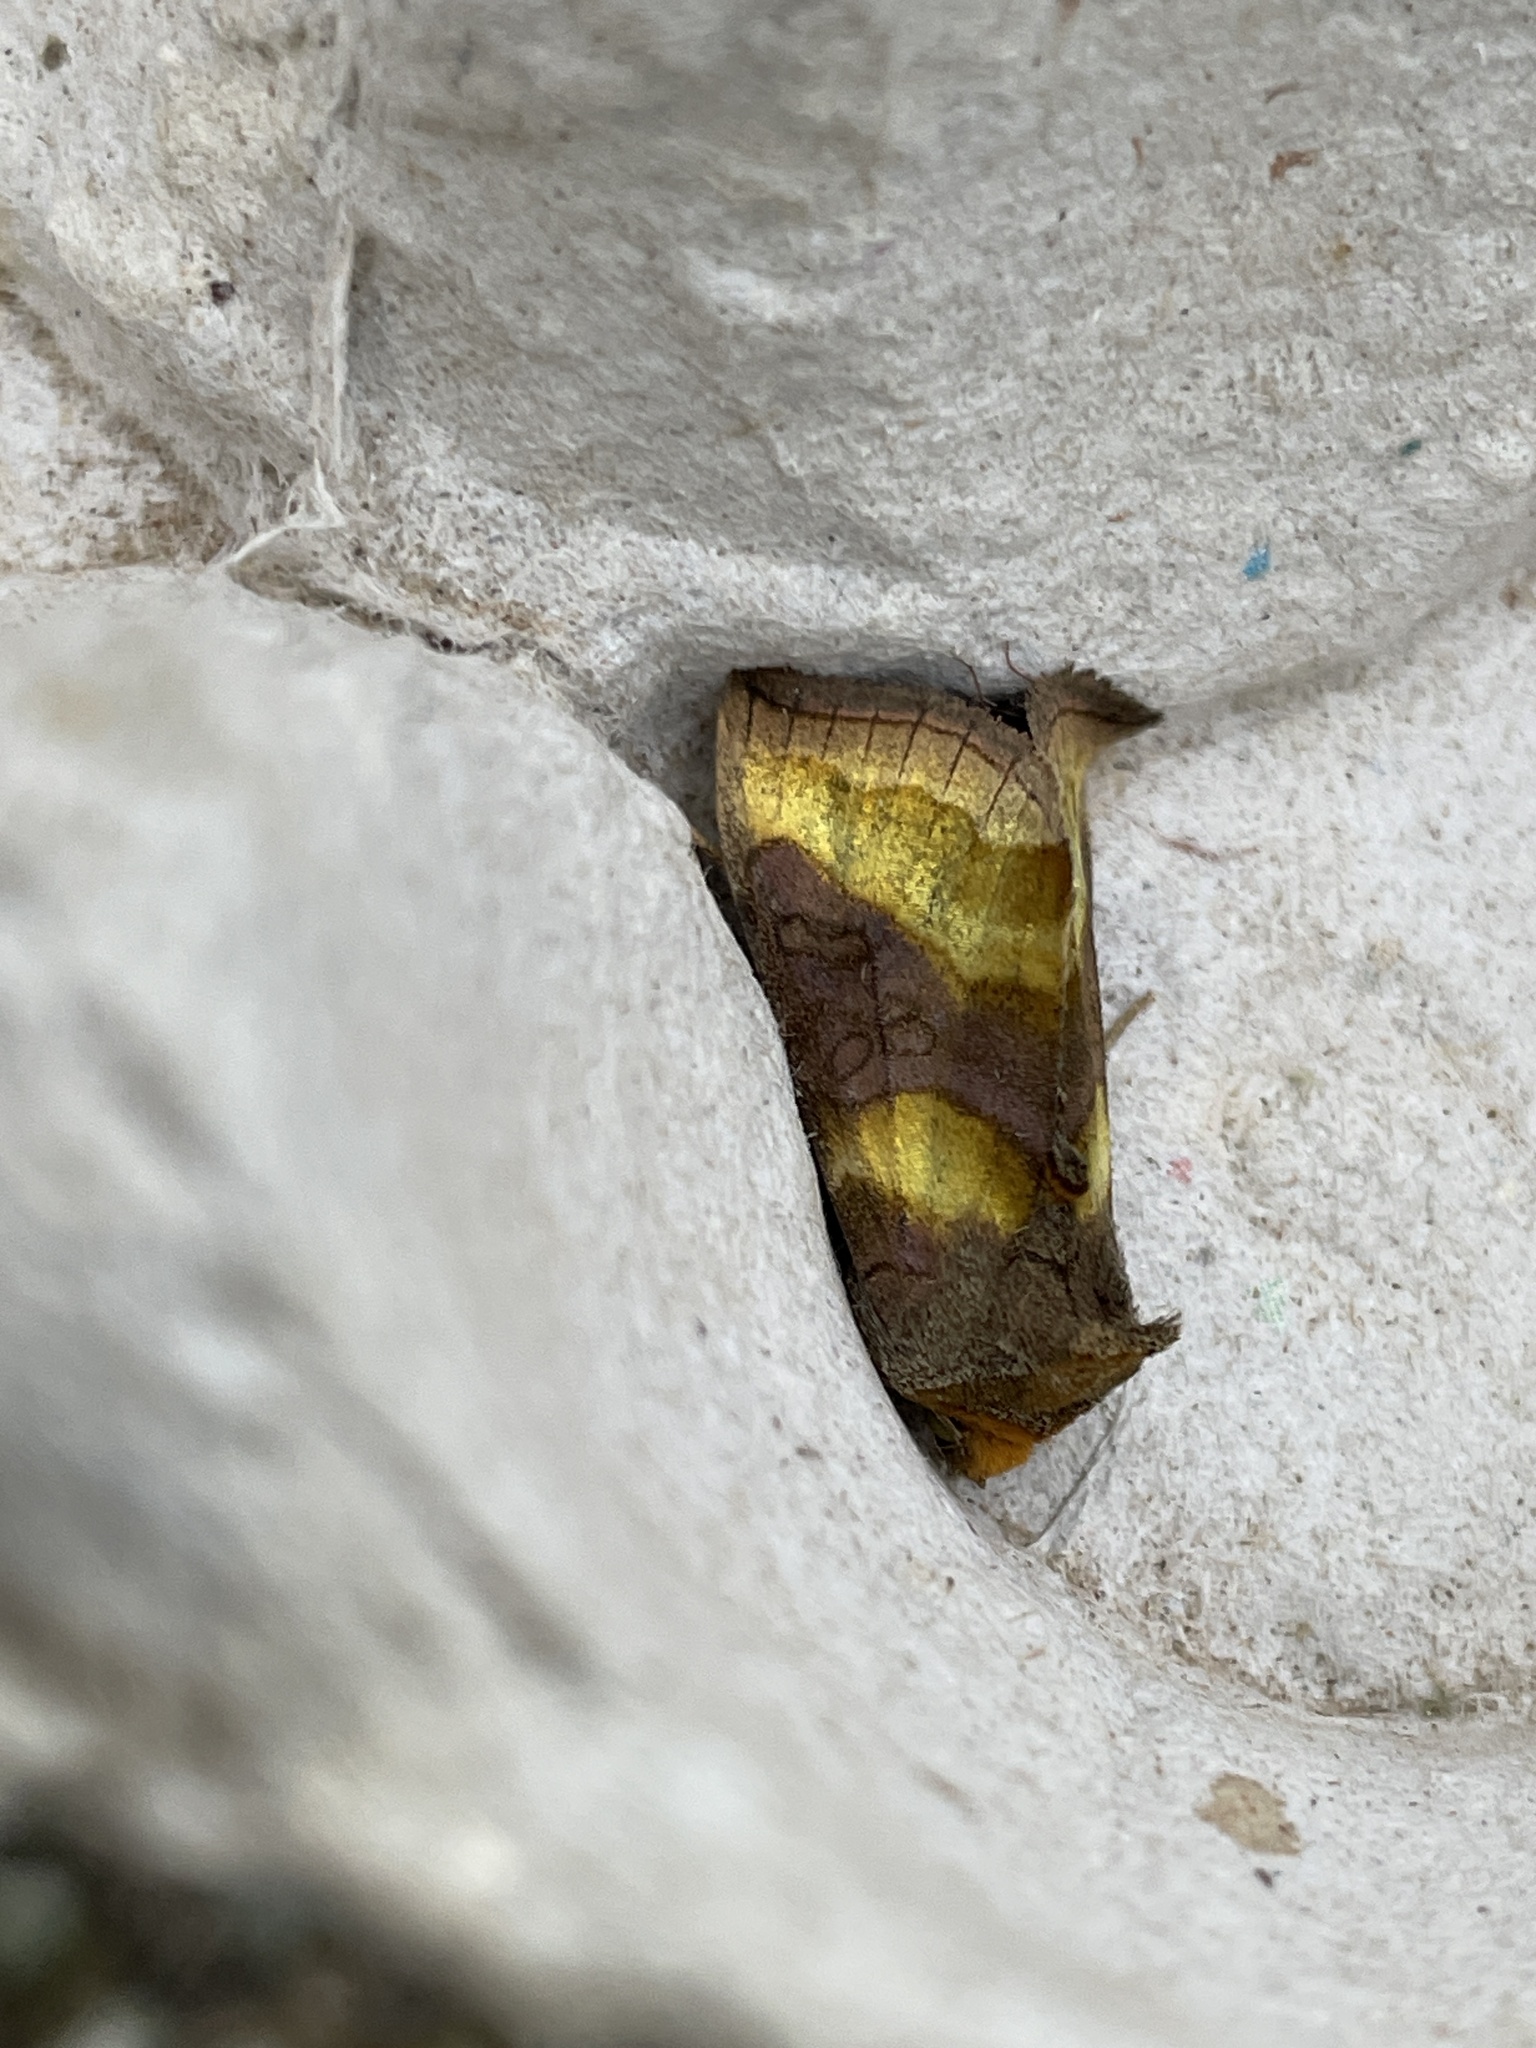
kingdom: Animalia
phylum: Arthropoda
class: Insecta
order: Lepidoptera
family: Noctuidae
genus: Diachrysia
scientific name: Diachrysia chrysitis
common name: Burnished brass
